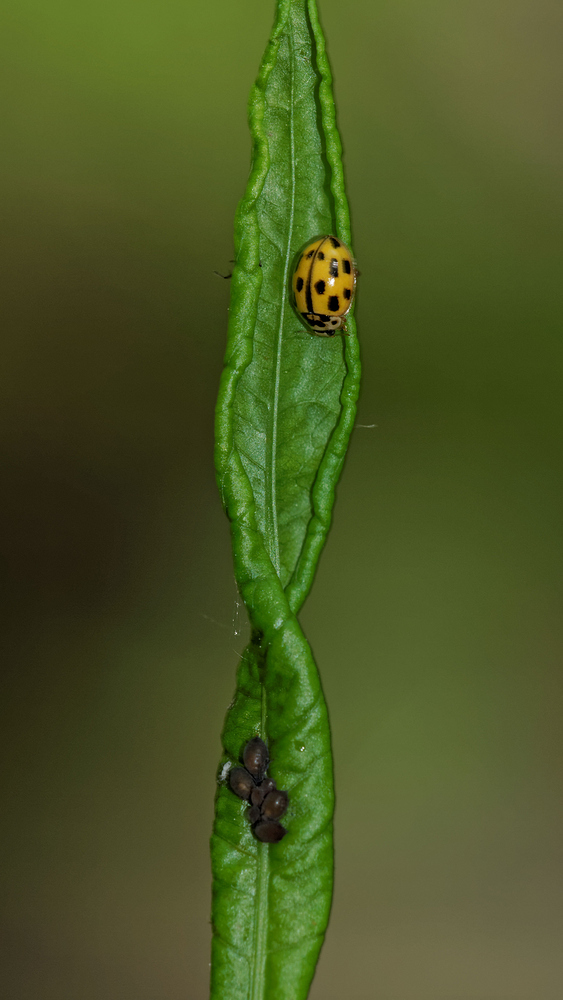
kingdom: Animalia
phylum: Arthropoda
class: Insecta
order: Coleoptera
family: Coccinellidae
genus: Propylaea
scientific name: Propylaea quatuordecimpunctata
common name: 14-spotted ladybird beetle
